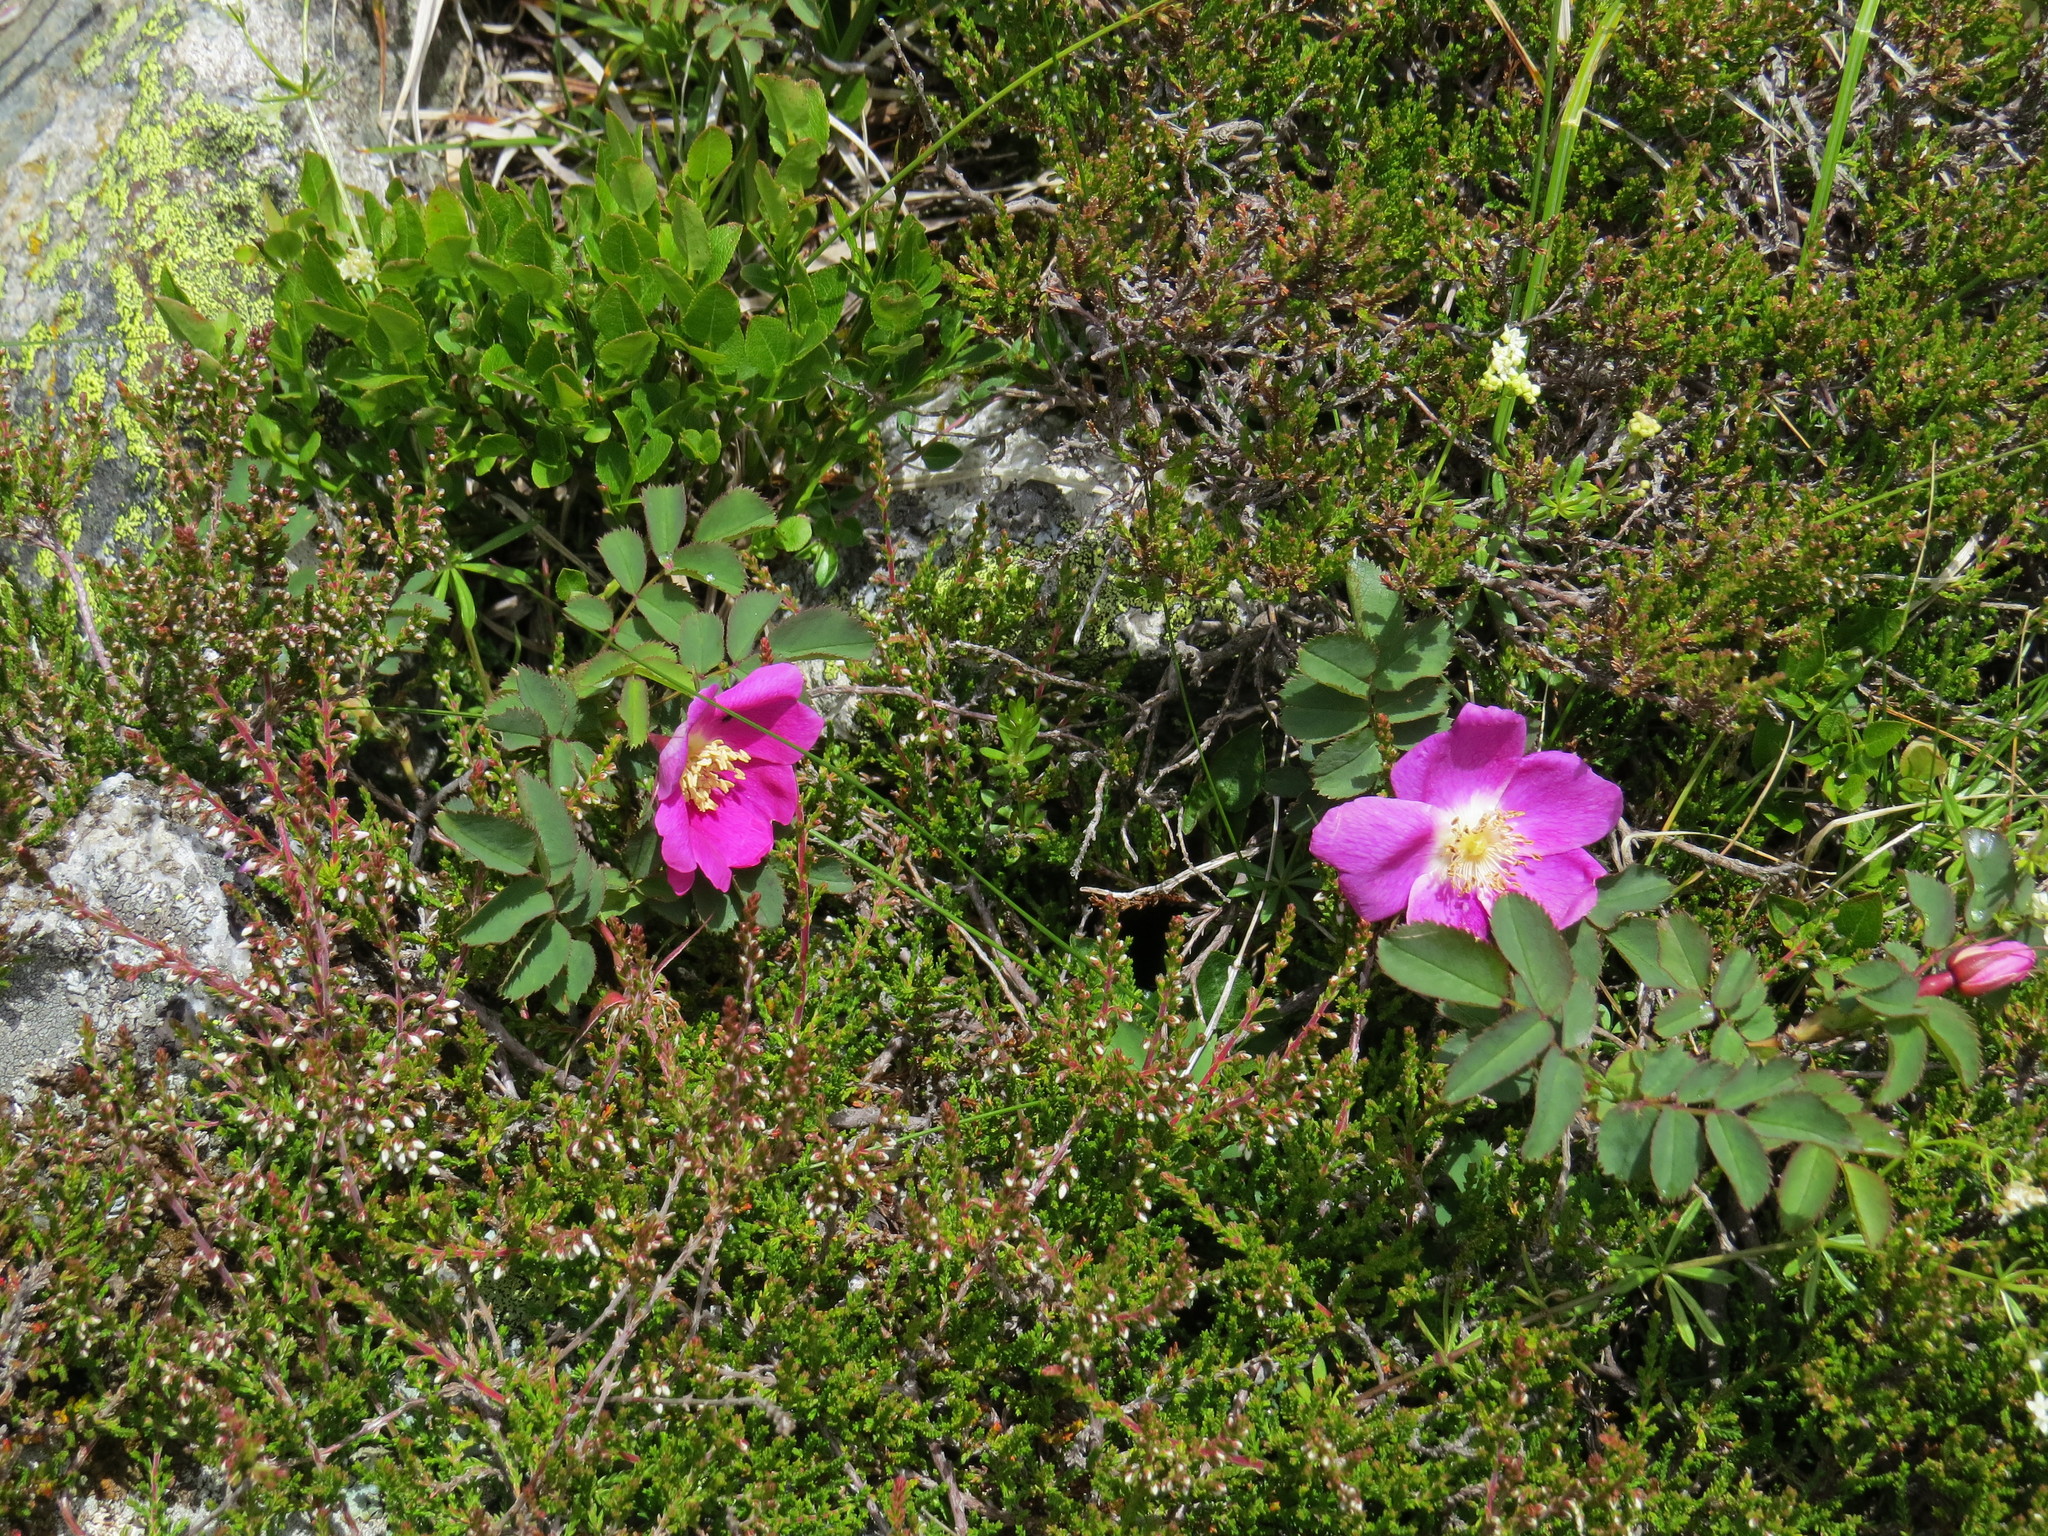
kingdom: Plantae
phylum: Tracheophyta
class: Magnoliopsida
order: Rosales
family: Rosaceae
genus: Rosa
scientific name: Rosa pendulina
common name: Alpine rose
